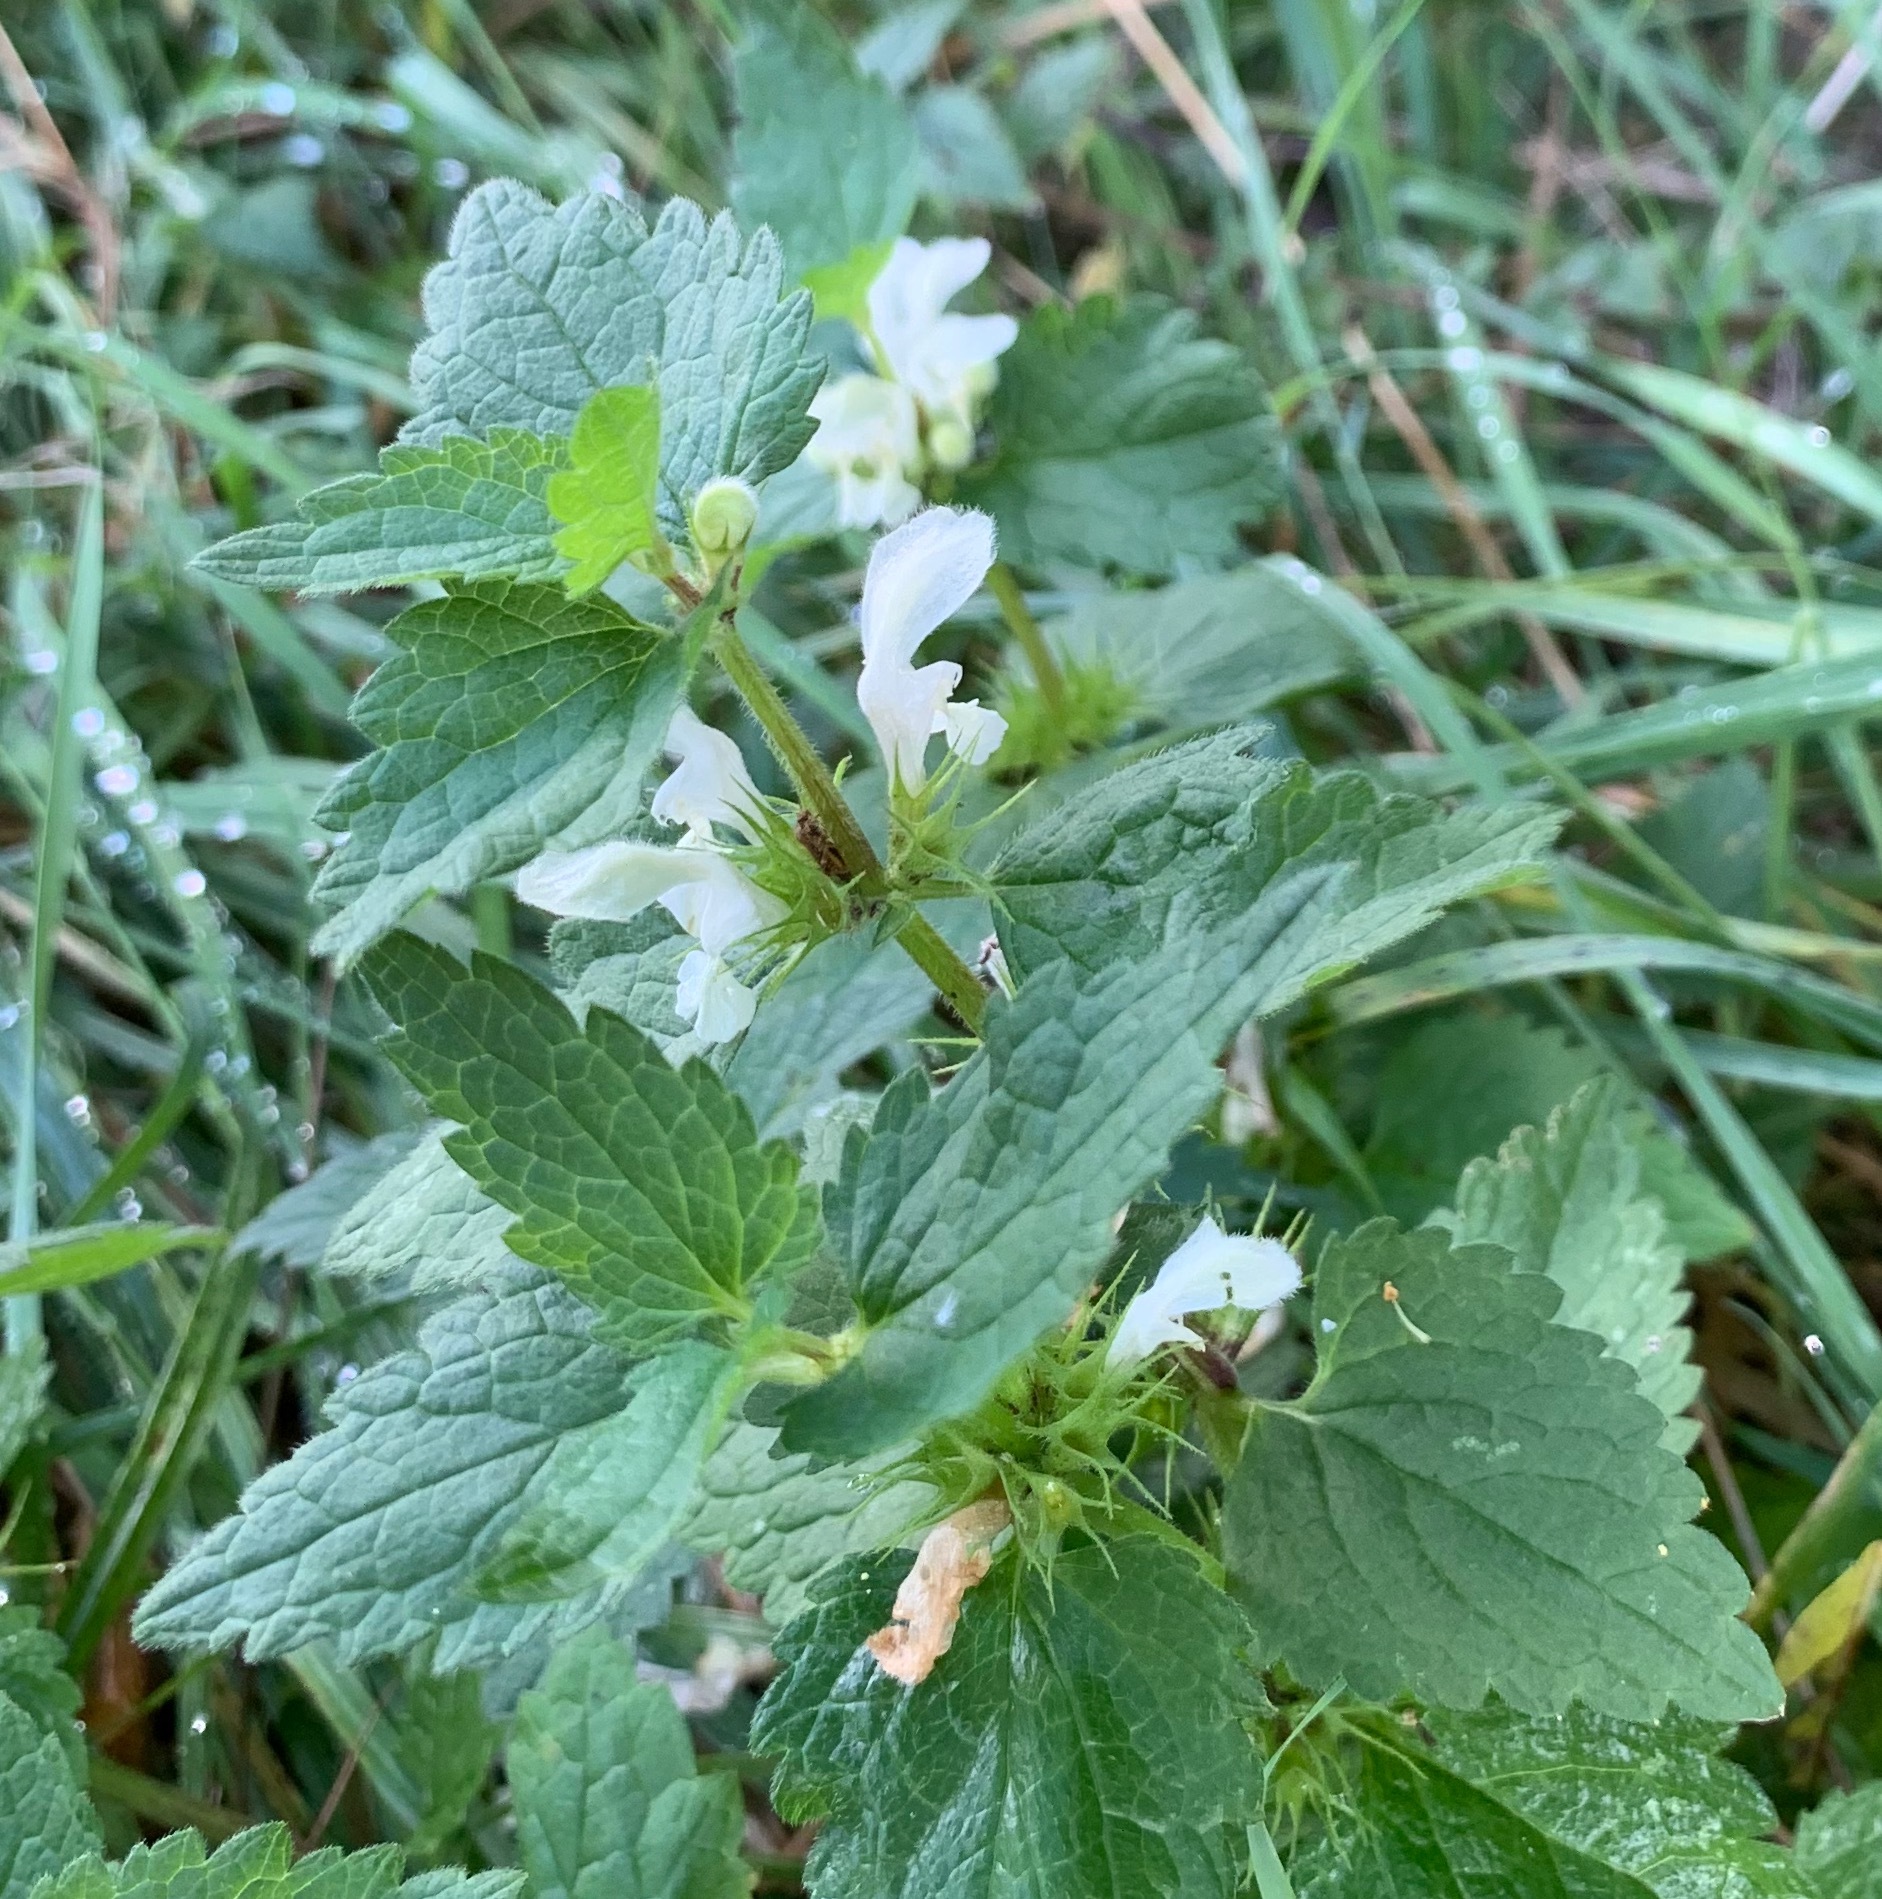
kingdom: Plantae
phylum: Tracheophyta
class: Magnoliopsida
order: Lamiales
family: Lamiaceae
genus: Lamium
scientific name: Lamium album
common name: White dead-nettle
